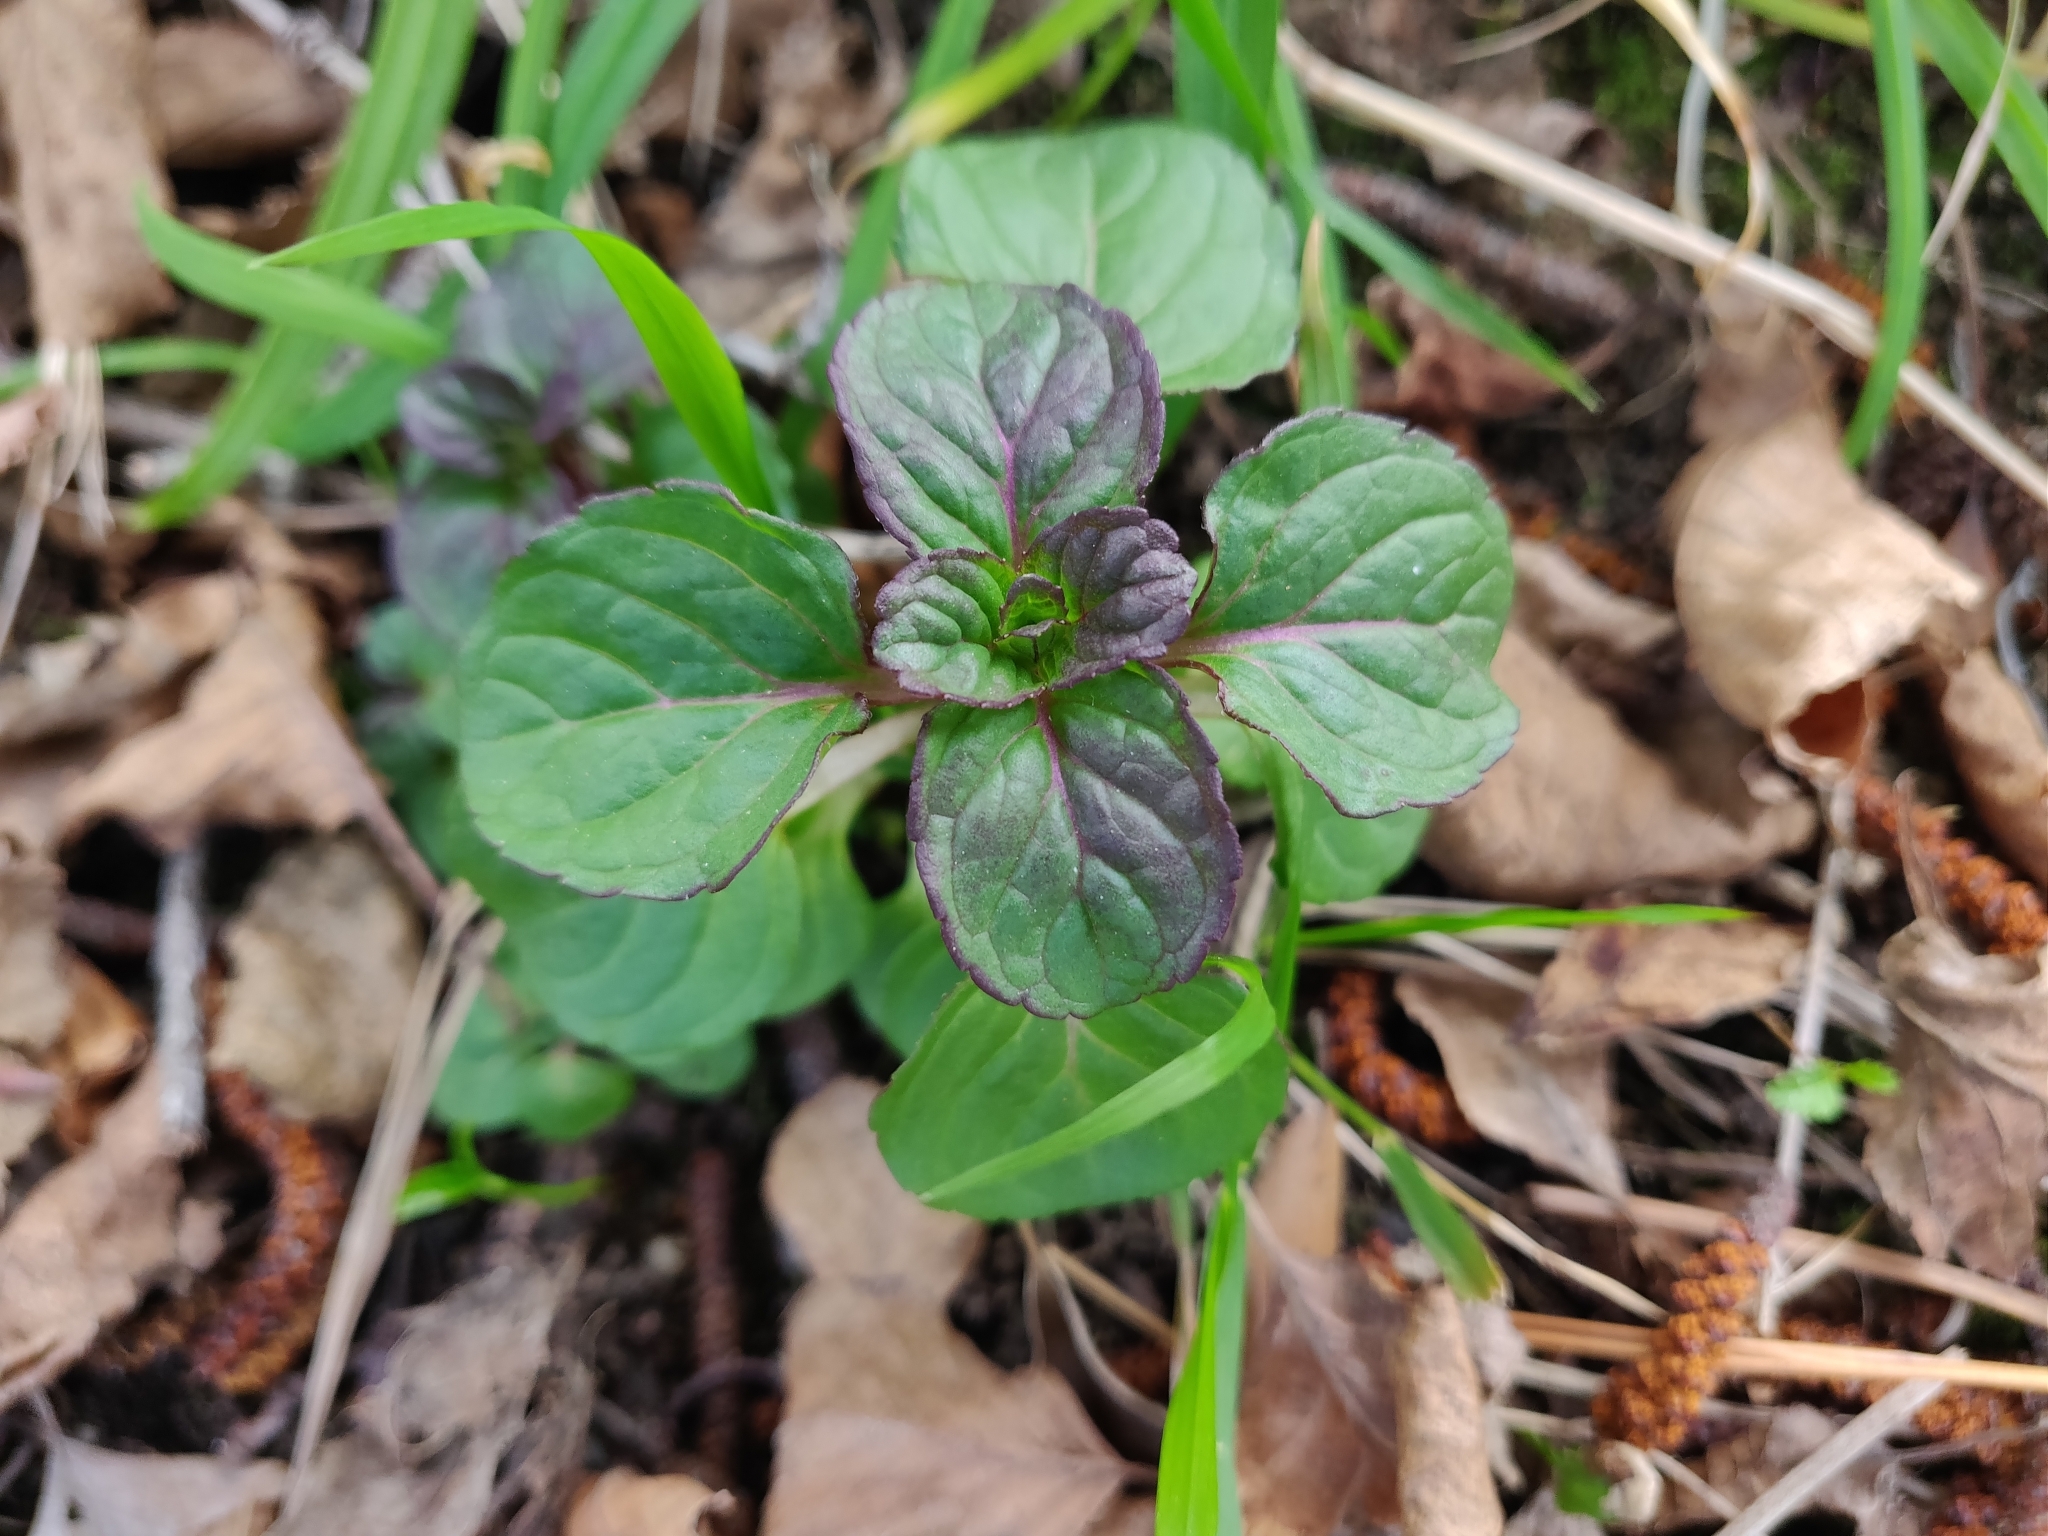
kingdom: Plantae
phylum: Tracheophyta
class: Magnoliopsida
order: Lamiales
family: Lamiaceae
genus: Mentha
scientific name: Mentha aquatica
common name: Water mint
